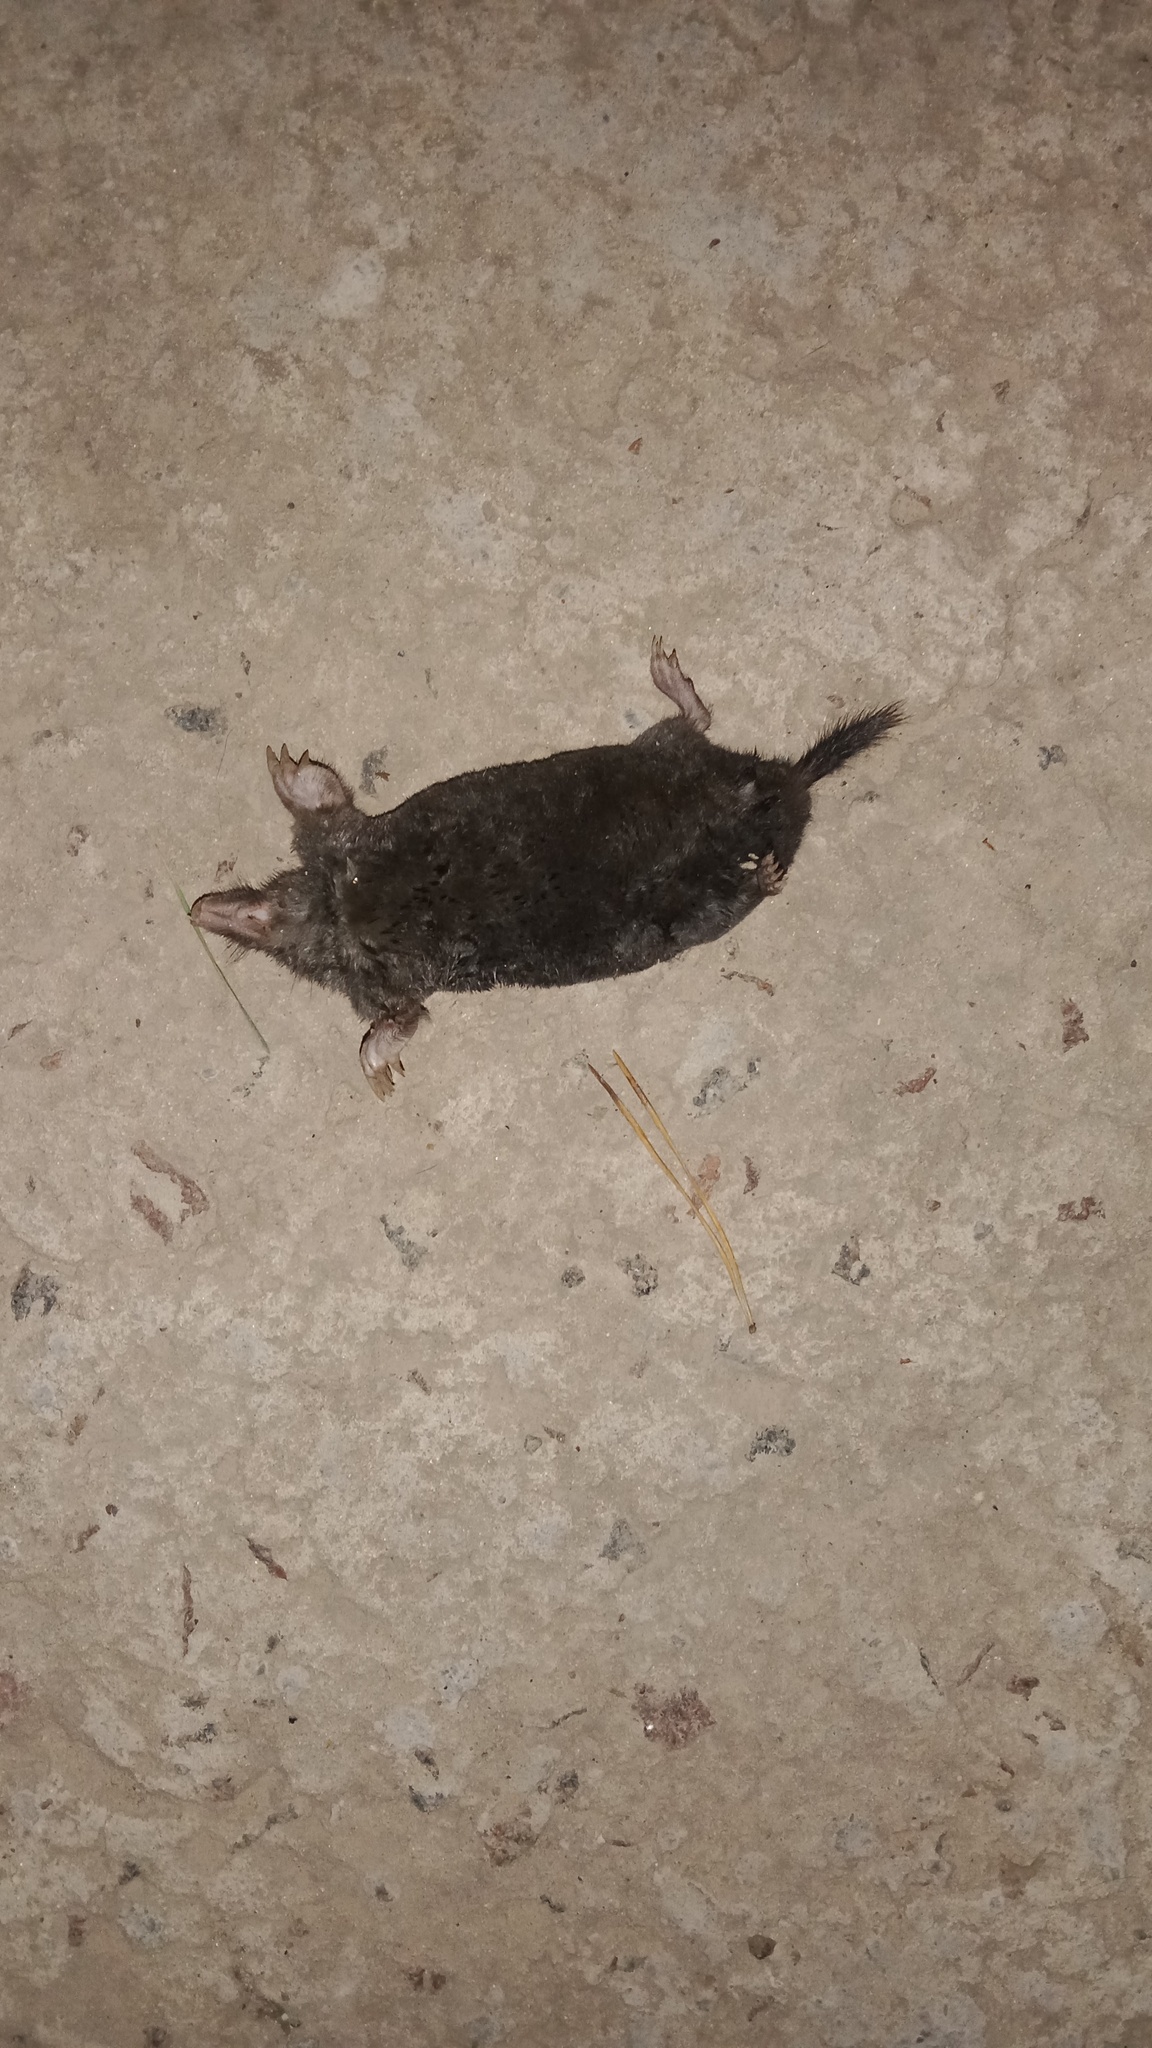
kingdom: Animalia
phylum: Chordata
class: Mammalia
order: Soricomorpha
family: Talpidae
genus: Talpa
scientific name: Talpa europaea
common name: European mole
